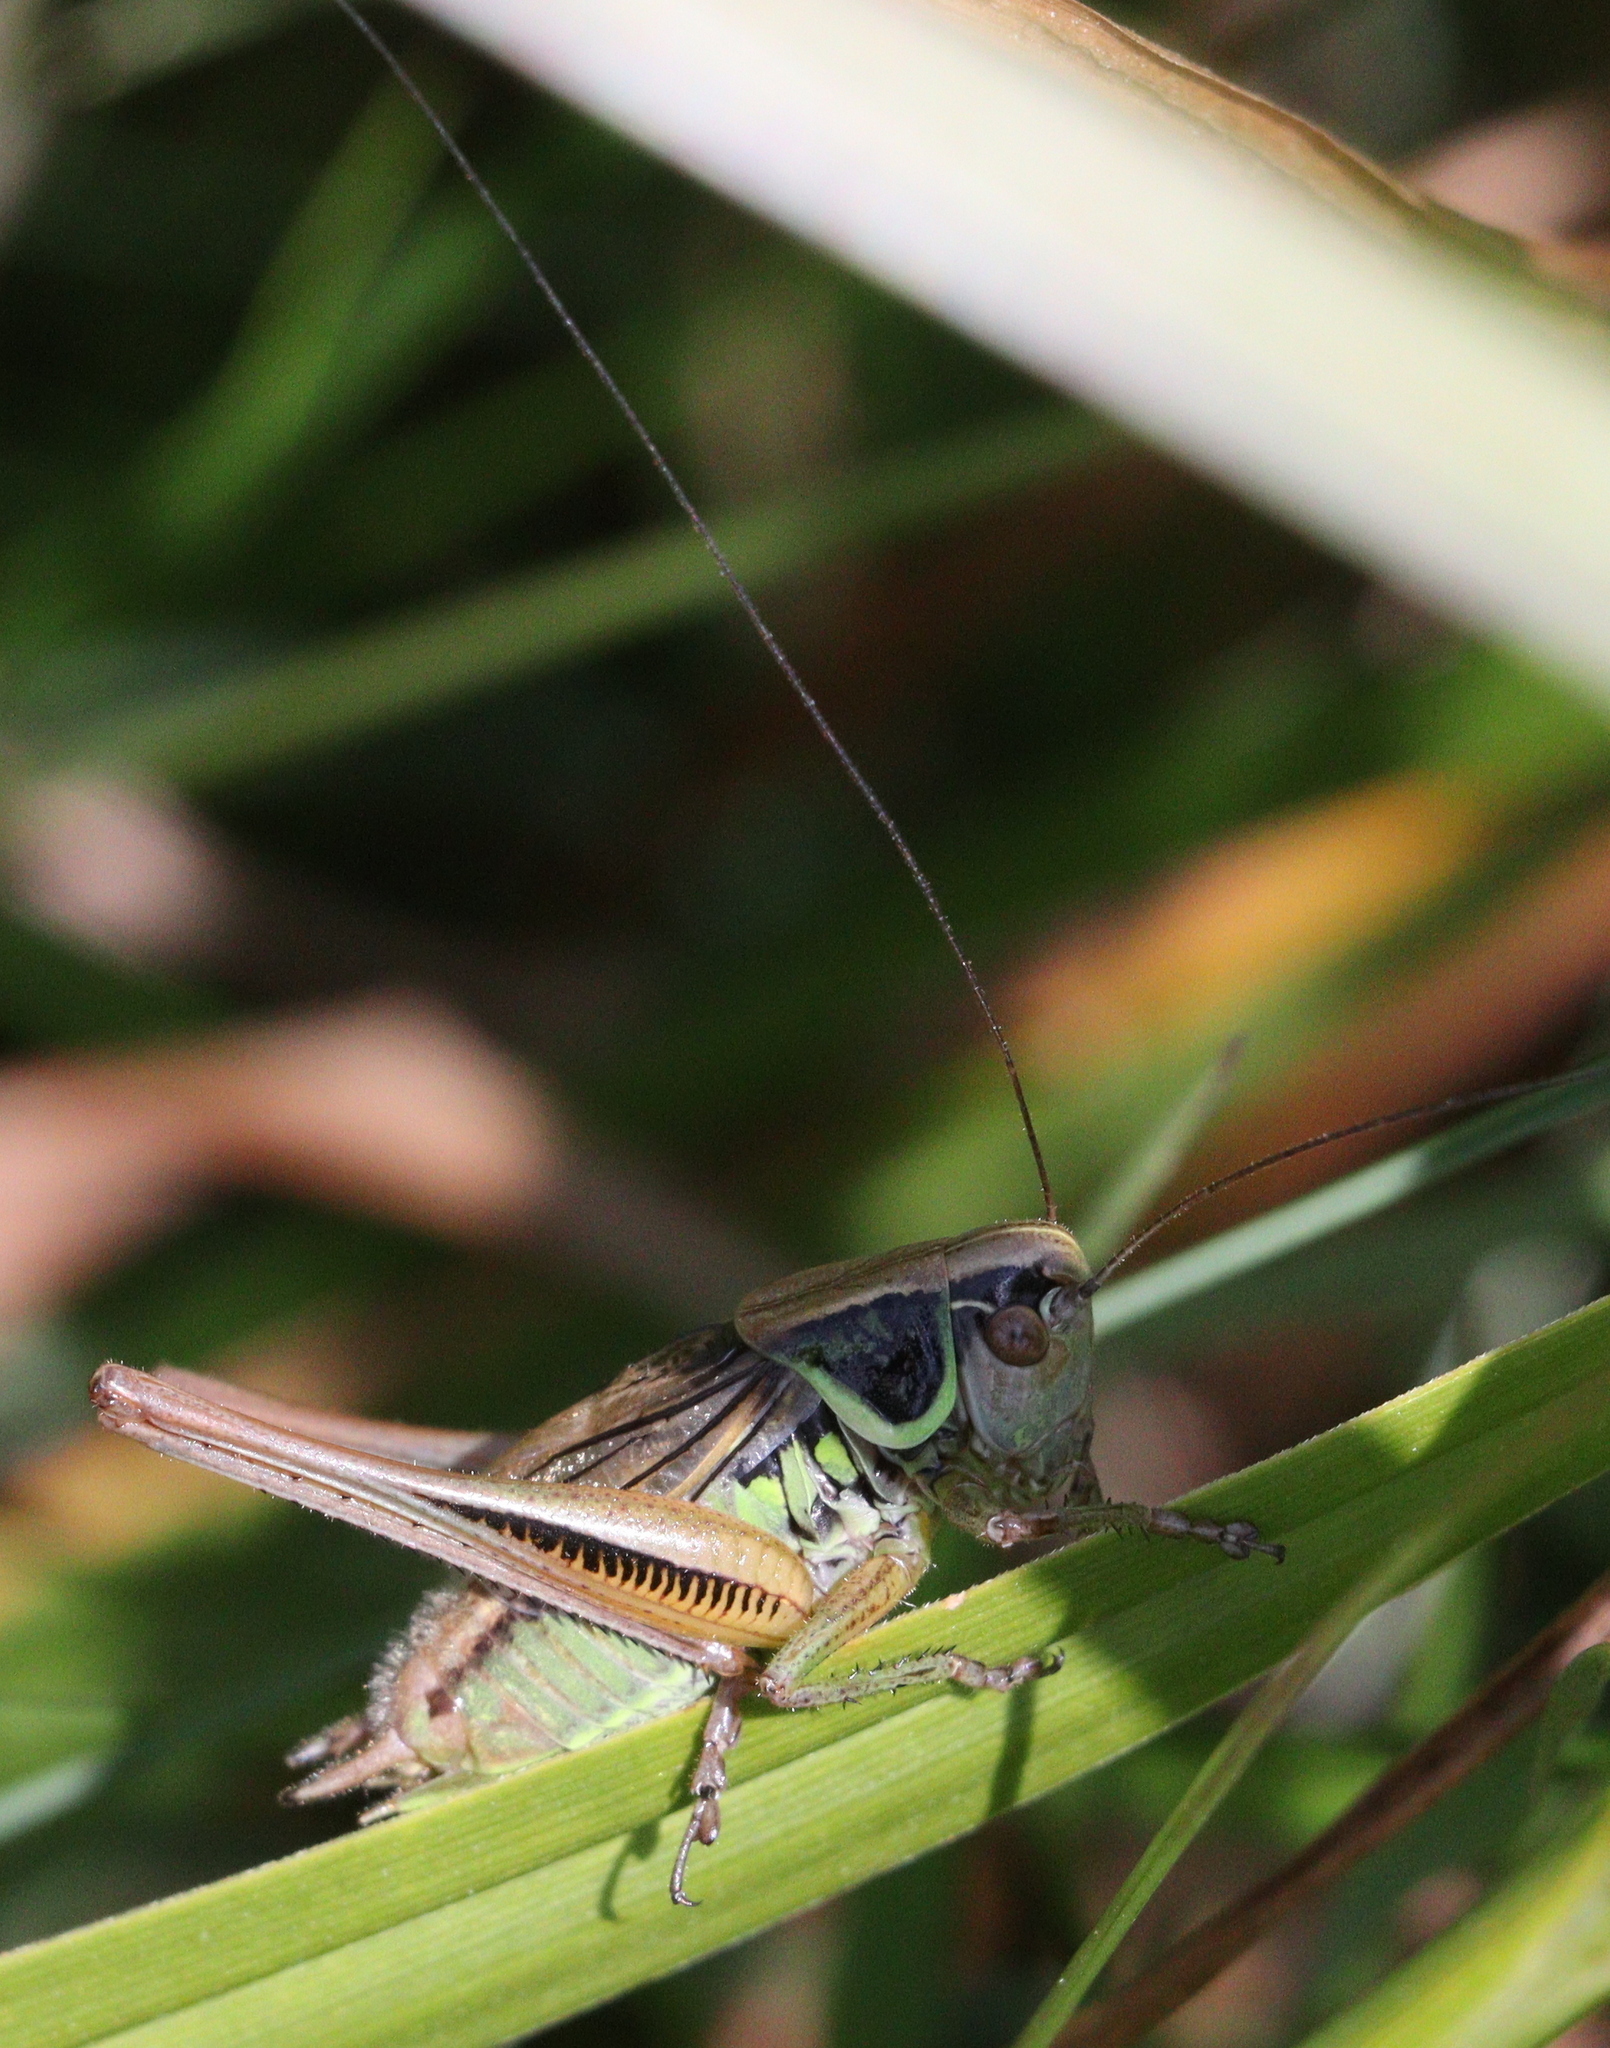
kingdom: Animalia
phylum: Arthropoda
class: Insecta
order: Orthoptera
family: Tettigoniidae
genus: Roeseliana
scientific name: Roeseliana roeselii
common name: Roesel's bush cricket
